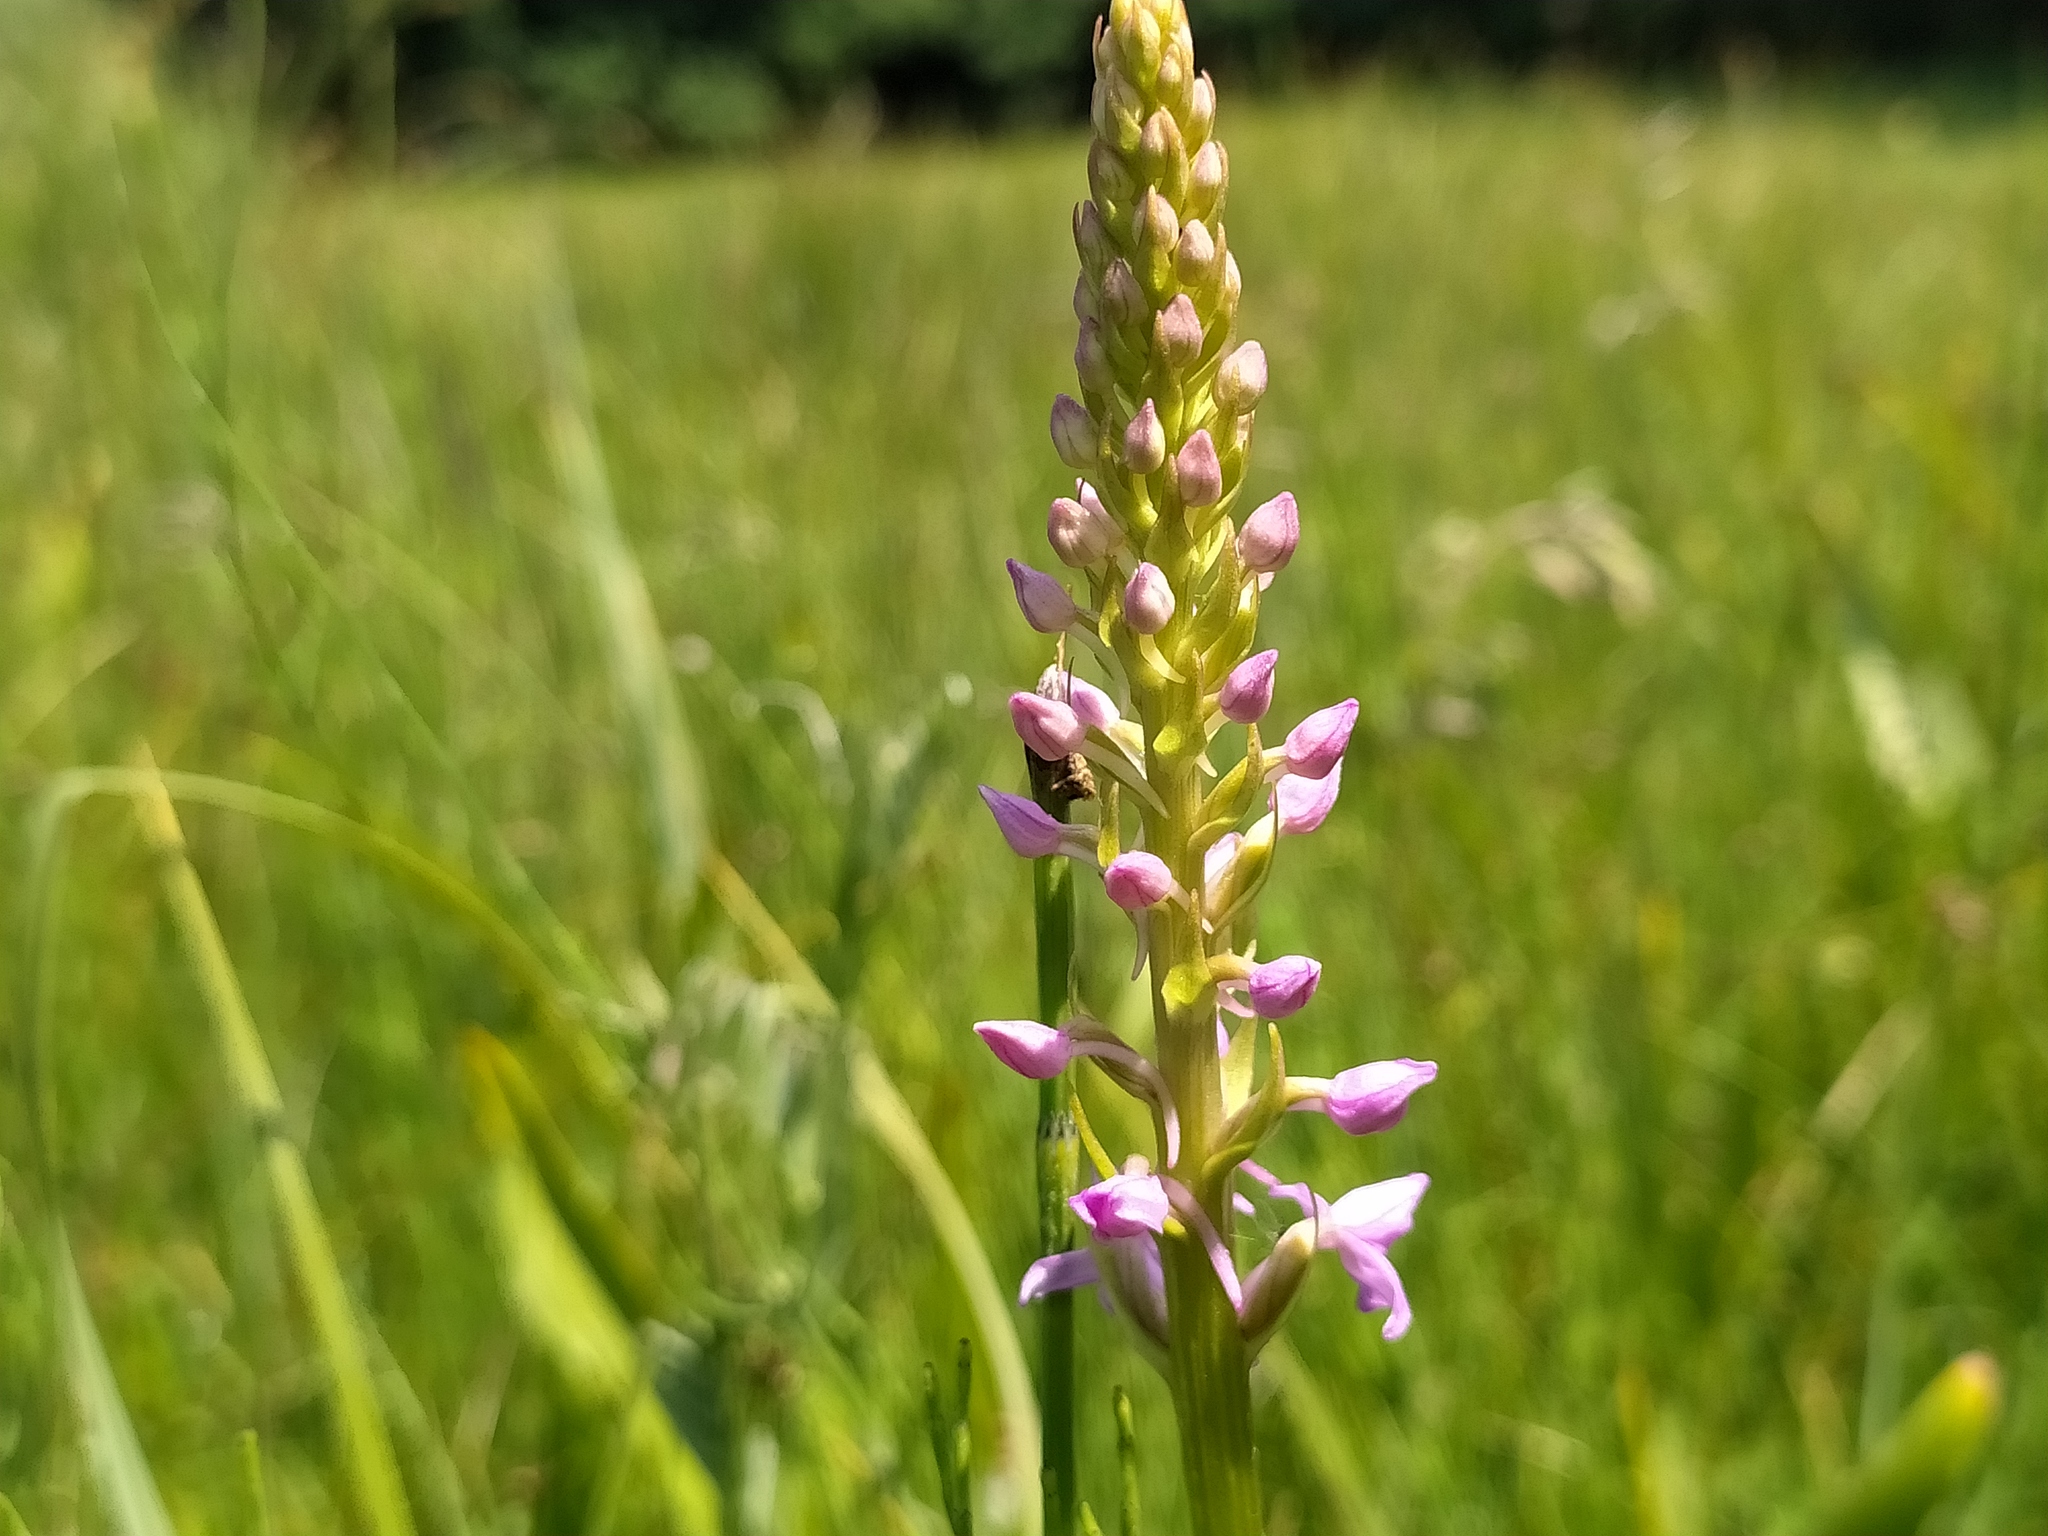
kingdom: Plantae
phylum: Tracheophyta
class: Liliopsida
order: Asparagales
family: Orchidaceae
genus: Gymnadenia
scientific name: Gymnadenia conopsea
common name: Fragrant orchid
